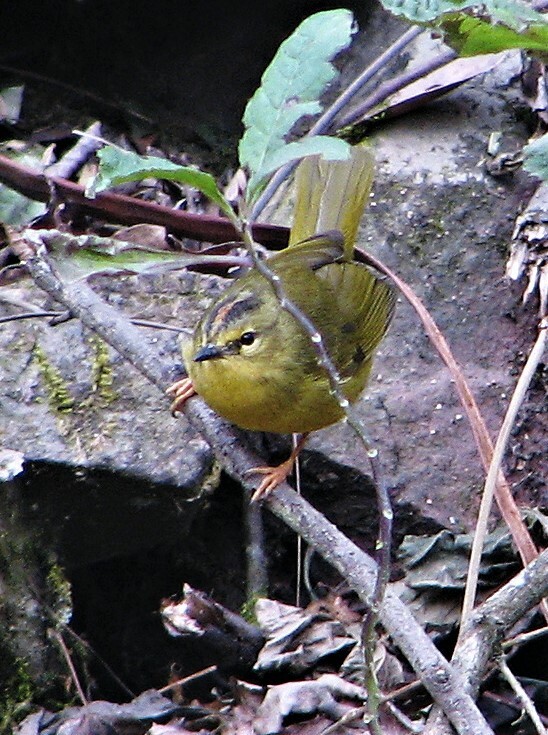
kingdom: Animalia
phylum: Chordata
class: Aves
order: Passeriformes
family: Parulidae
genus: Myiothlypis
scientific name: Myiothlypis bivittata
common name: Two-banded warbler
